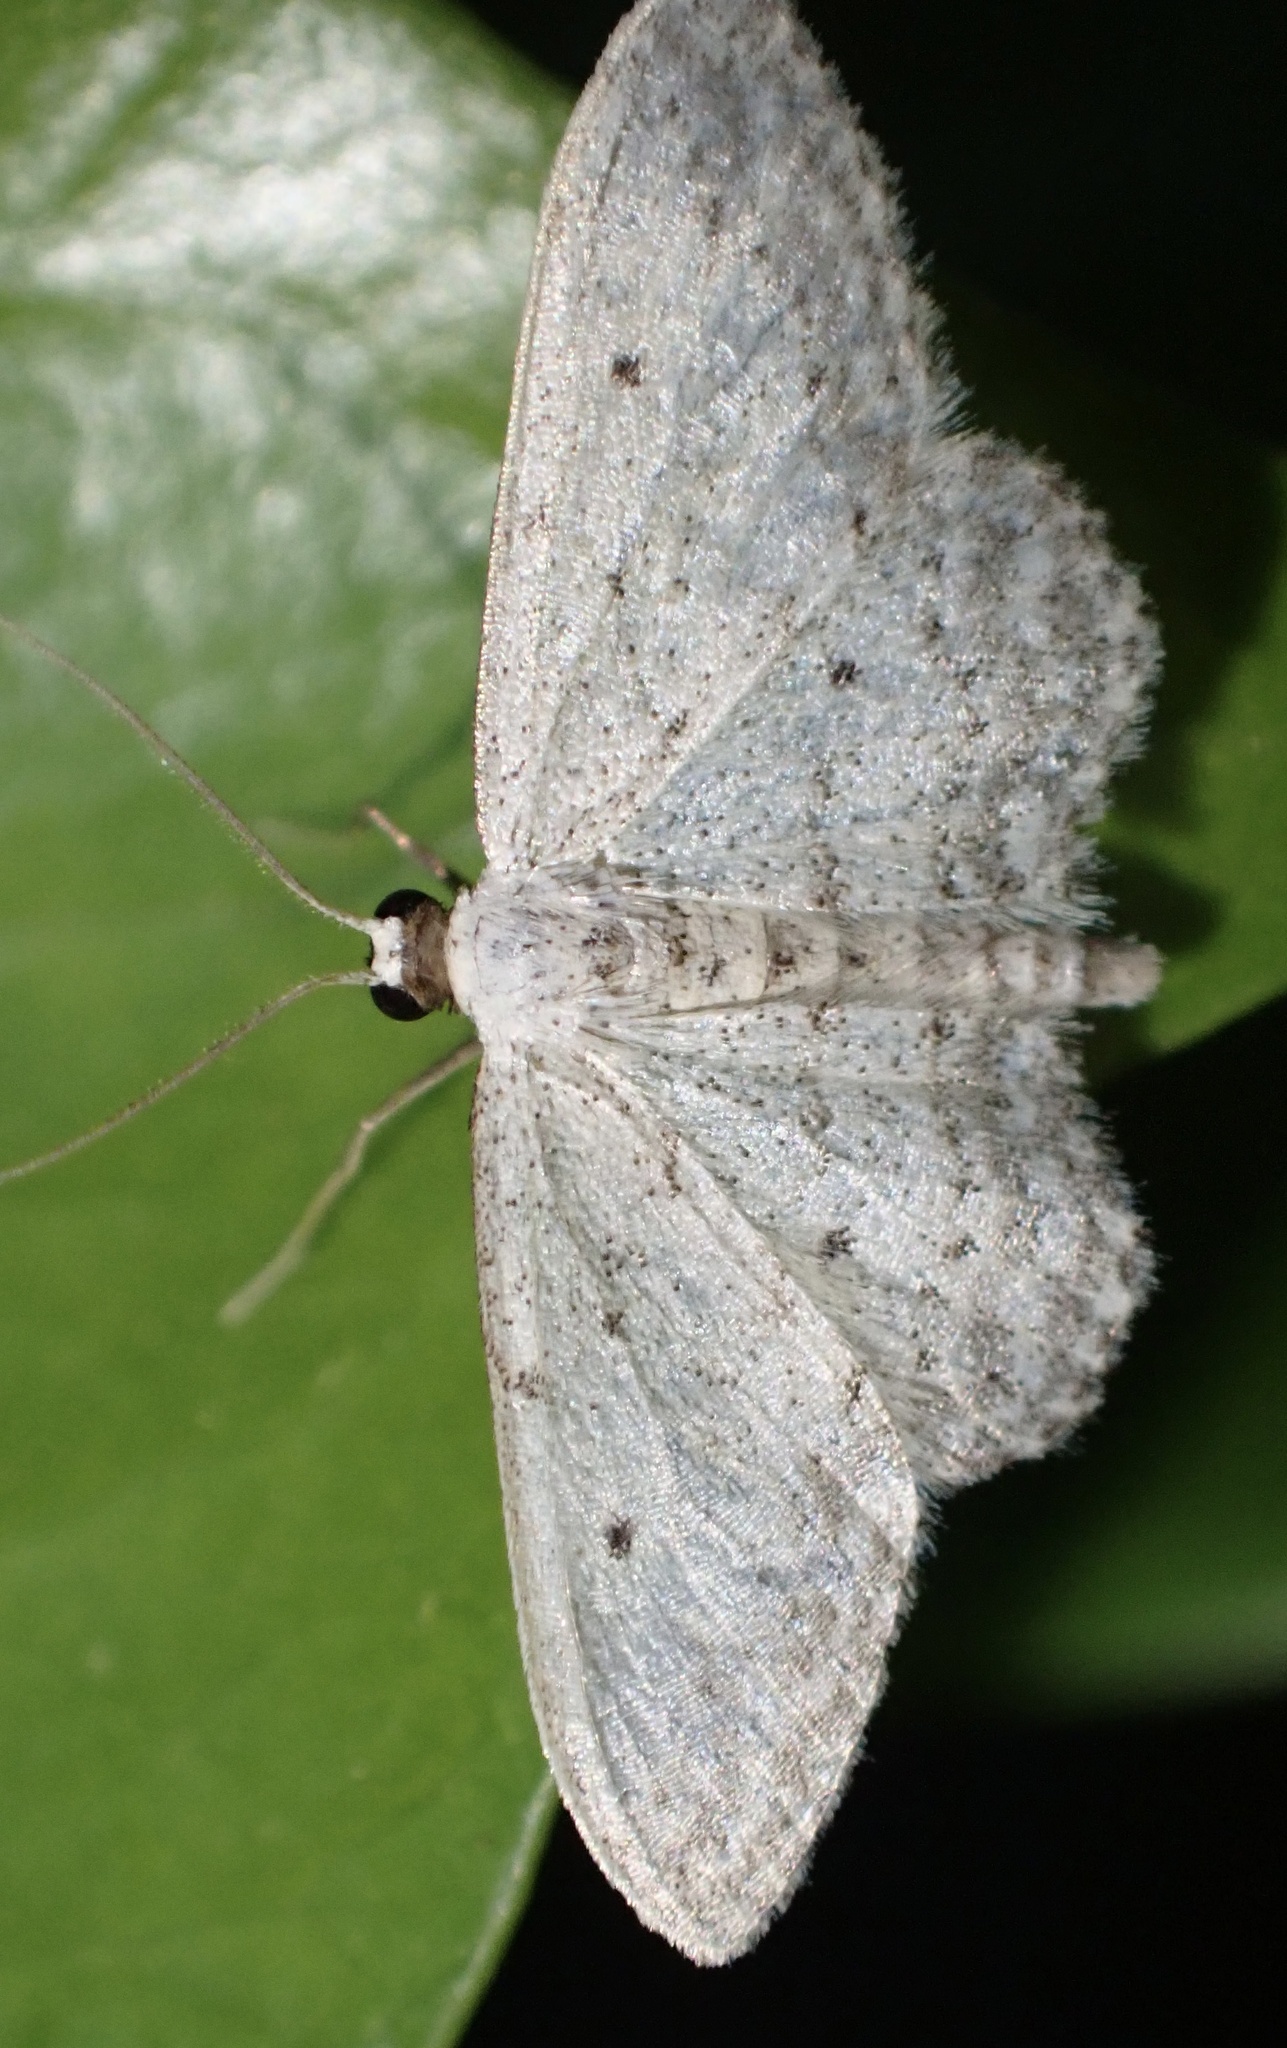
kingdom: Animalia
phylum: Arthropoda
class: Insecta
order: Lepidoptera
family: Geometridae
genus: Idaea
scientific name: Idaea seriata
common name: Small dusty wave
